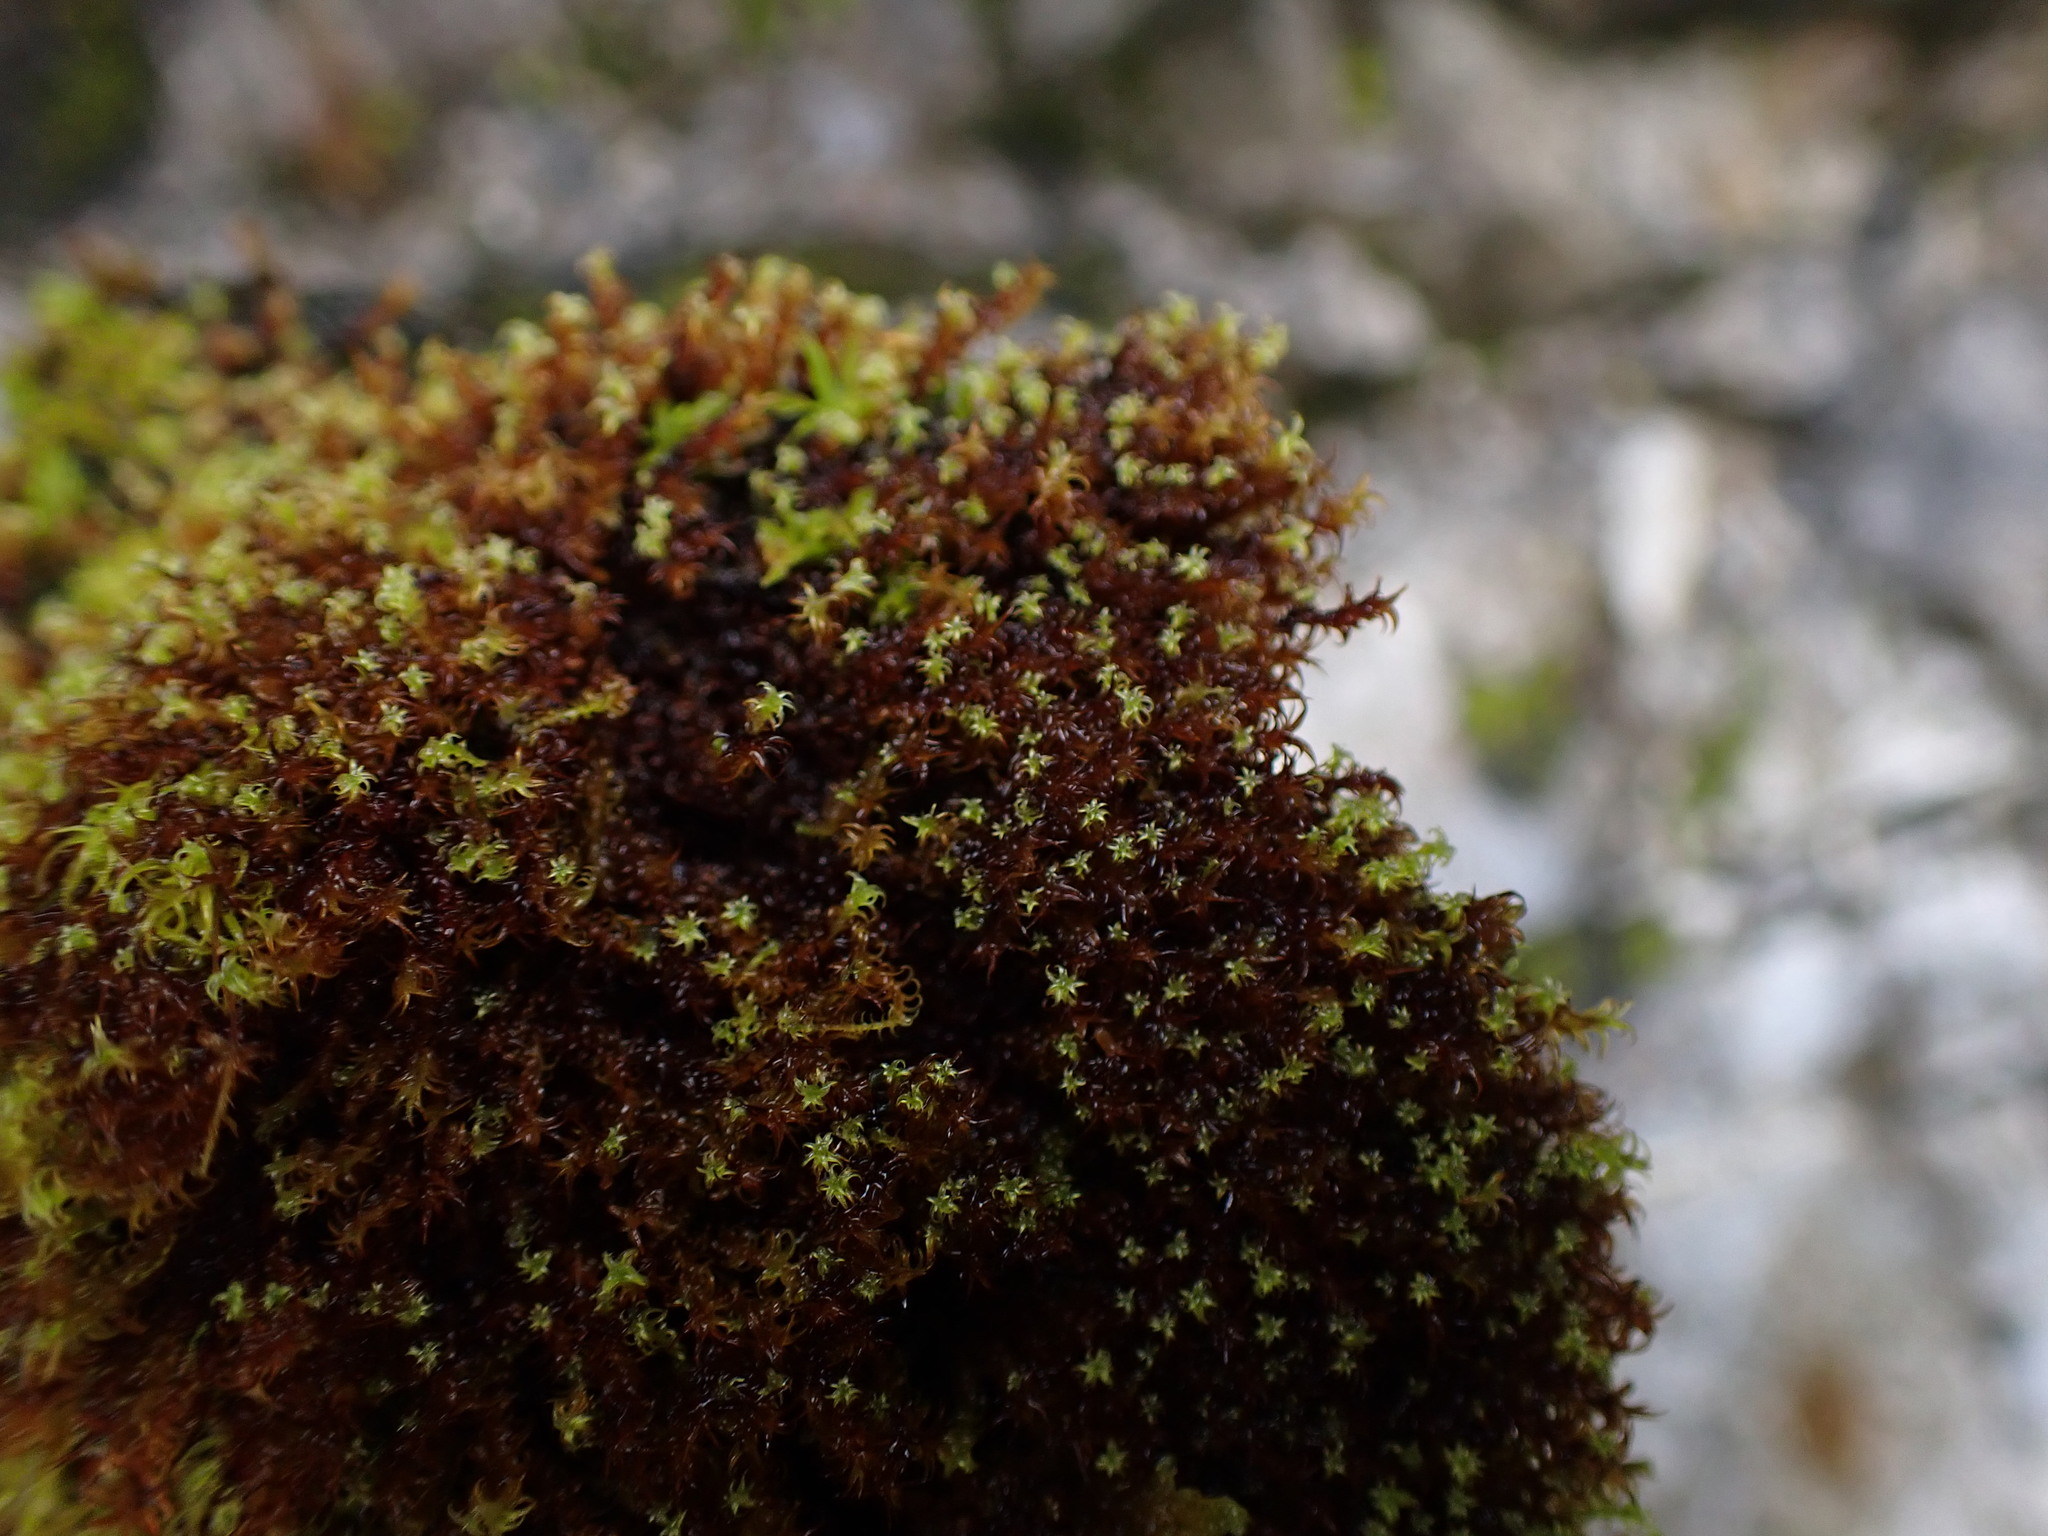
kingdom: Plantae
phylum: Bryophyta
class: Bryopsida
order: Pottiales
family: Pottiaceae
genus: Geheebia
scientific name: Geheebia ferruginea
